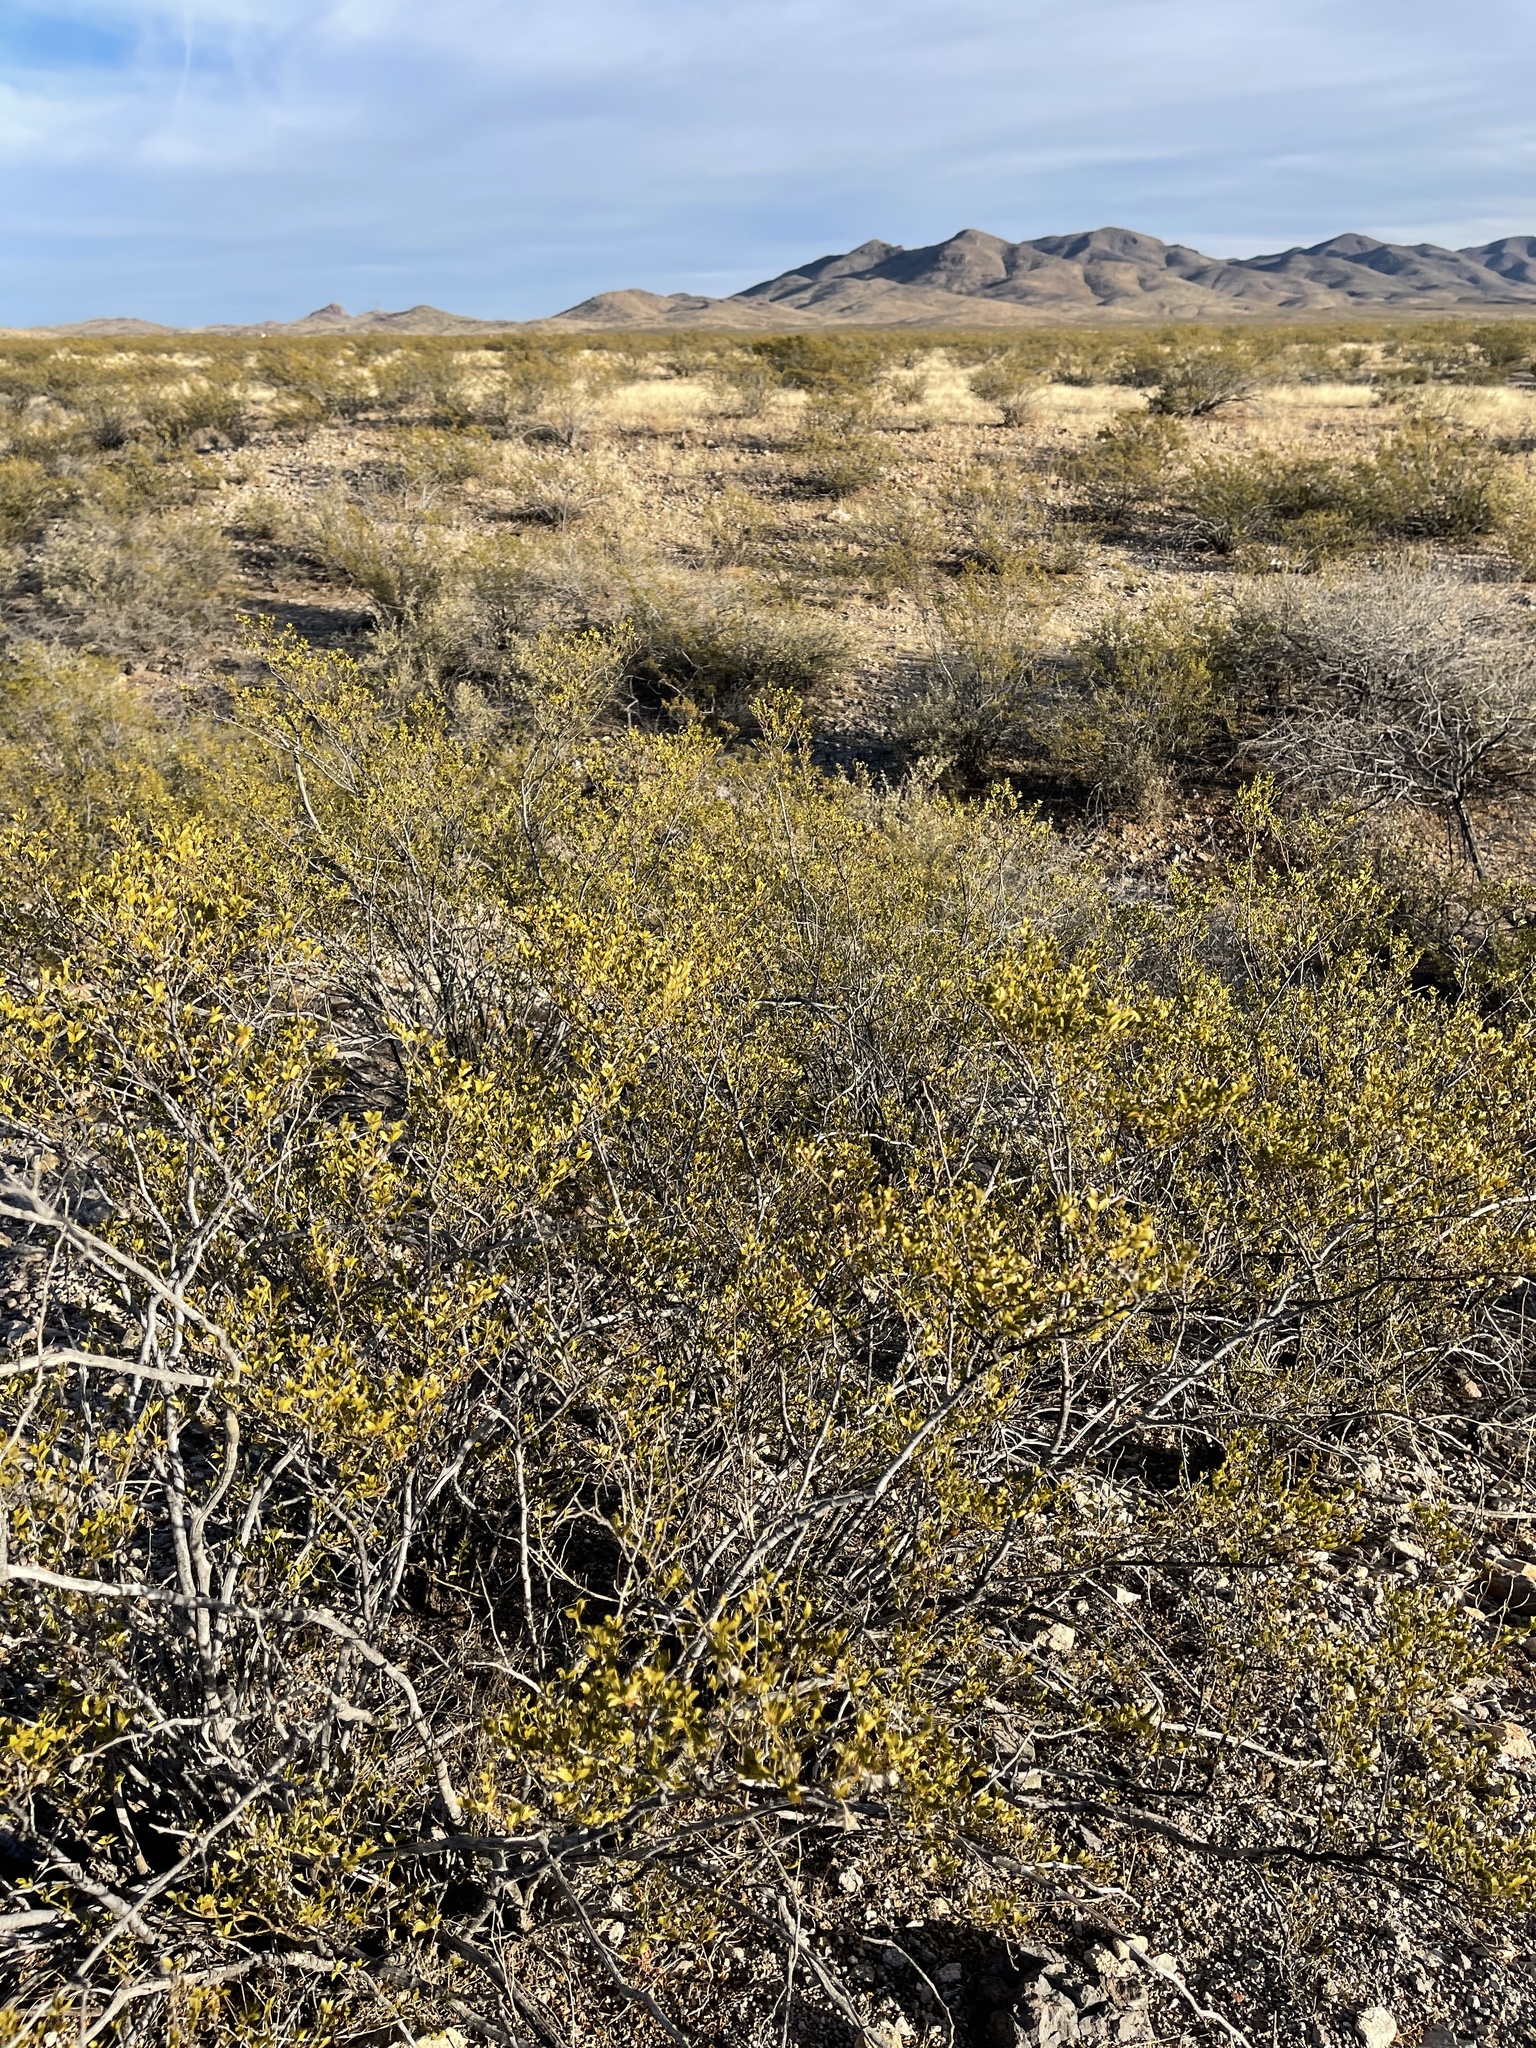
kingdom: Plantae
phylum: Tracheophyta
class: Magnoliopsida
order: Zygophyllales
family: Zygophyllaceae
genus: Larrea
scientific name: Larrea tridentata
